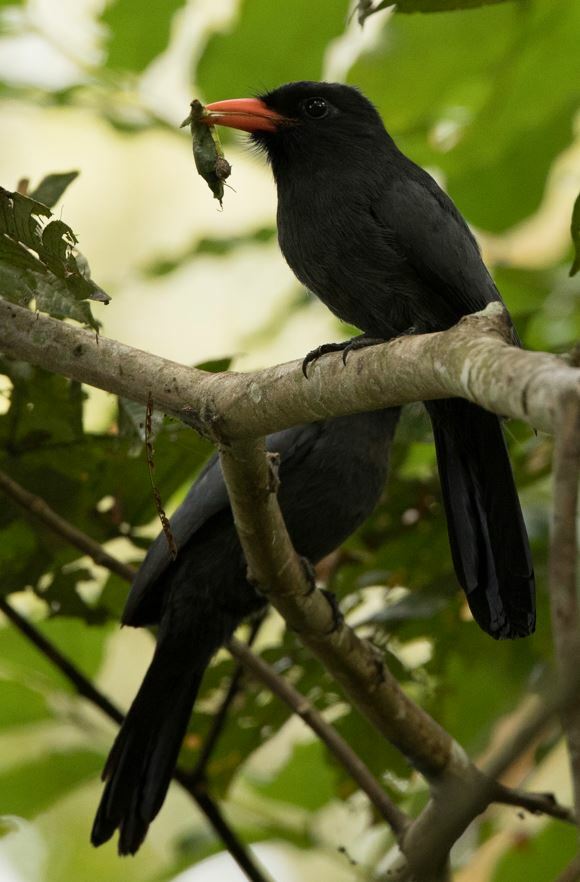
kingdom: Animalia
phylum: Chordata
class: Aves
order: Piciformes
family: Bucconidae
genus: Monasa
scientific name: Monasa nigrifrons
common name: Black-fronted nunbird
